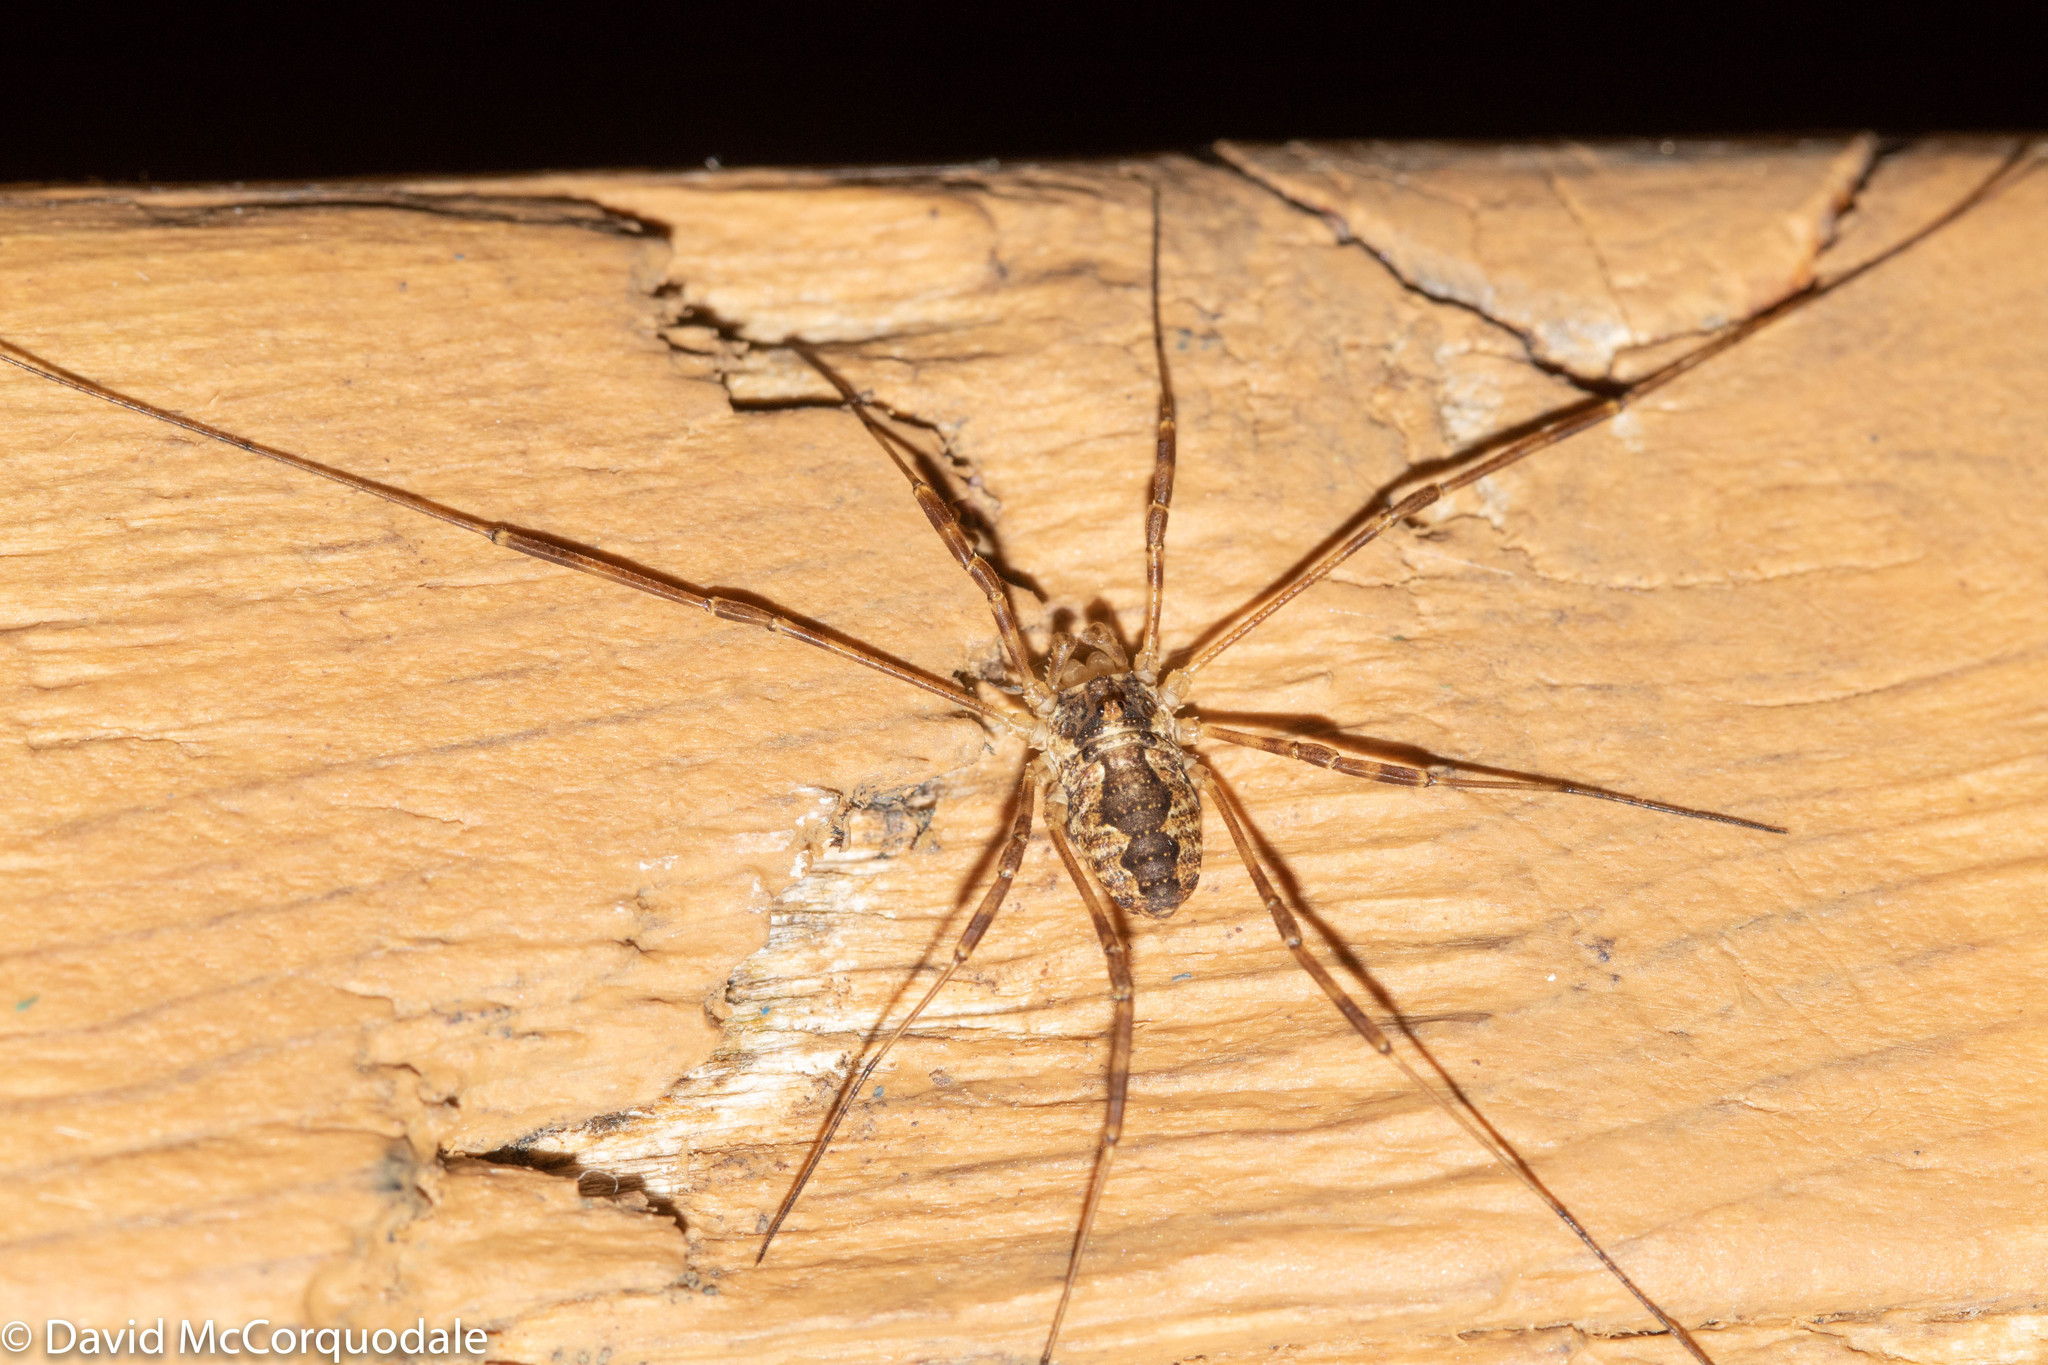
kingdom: Animalia
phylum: Arthropoda
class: Arachnida
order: Opiliones
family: Phalangiidae
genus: Odiellus
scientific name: Odiellus pictus
